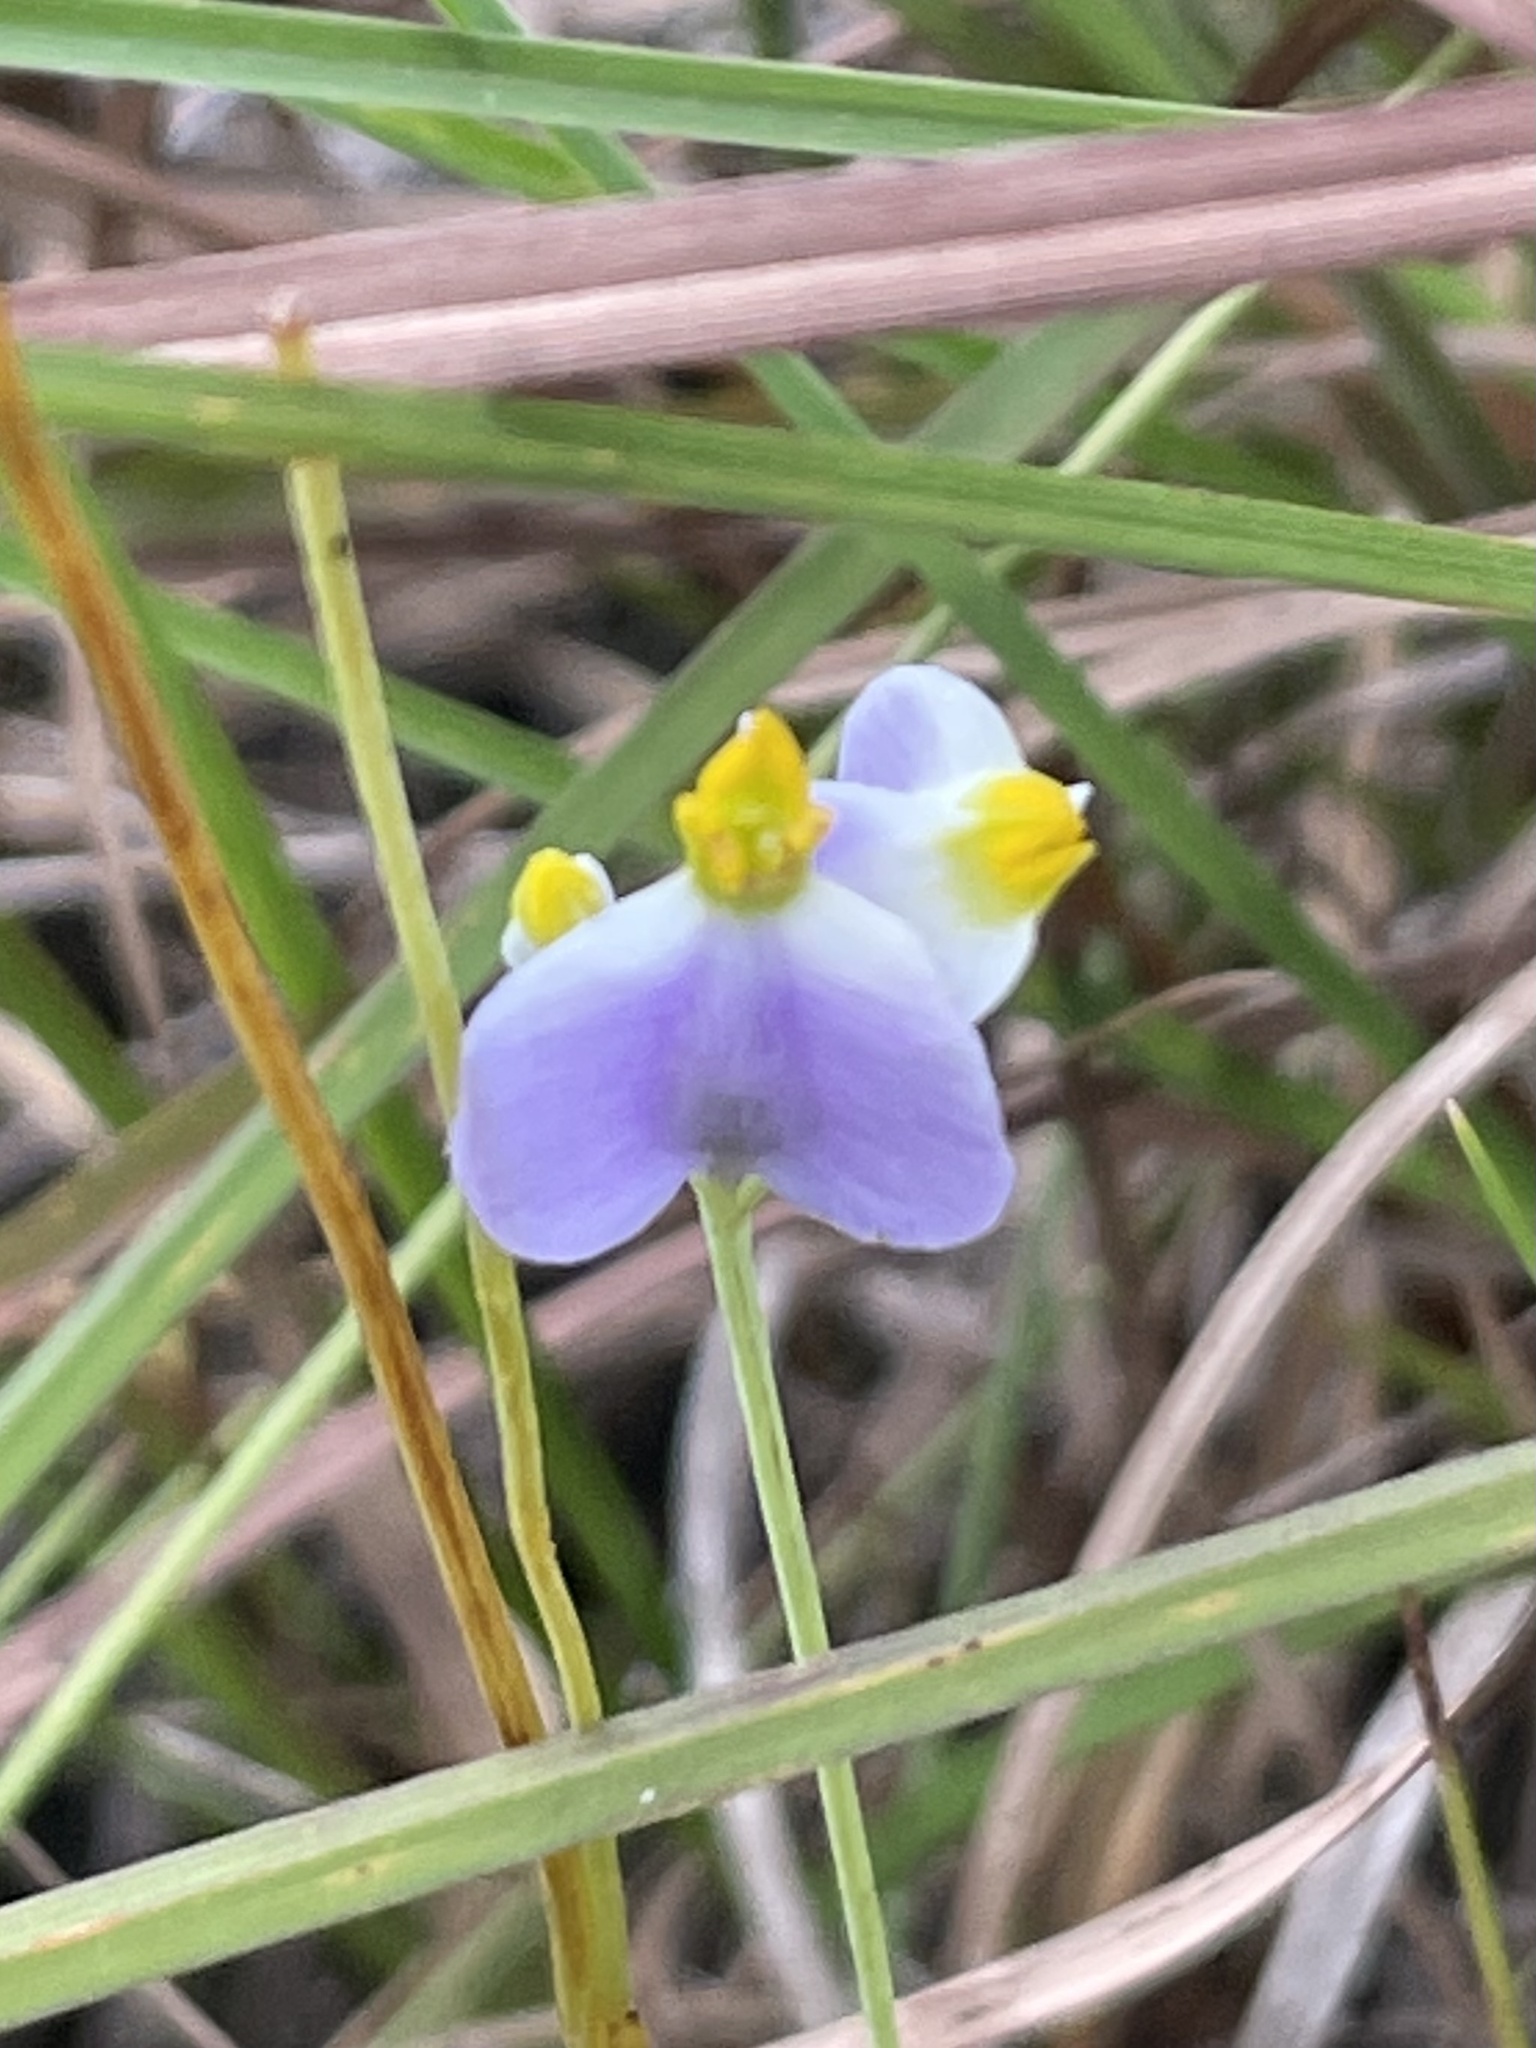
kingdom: Plantae
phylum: Tracheophyta
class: Liliopsida
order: Dioscoreales
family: Burmanniaceae
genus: Burmannia
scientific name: Burmannia bicolor
